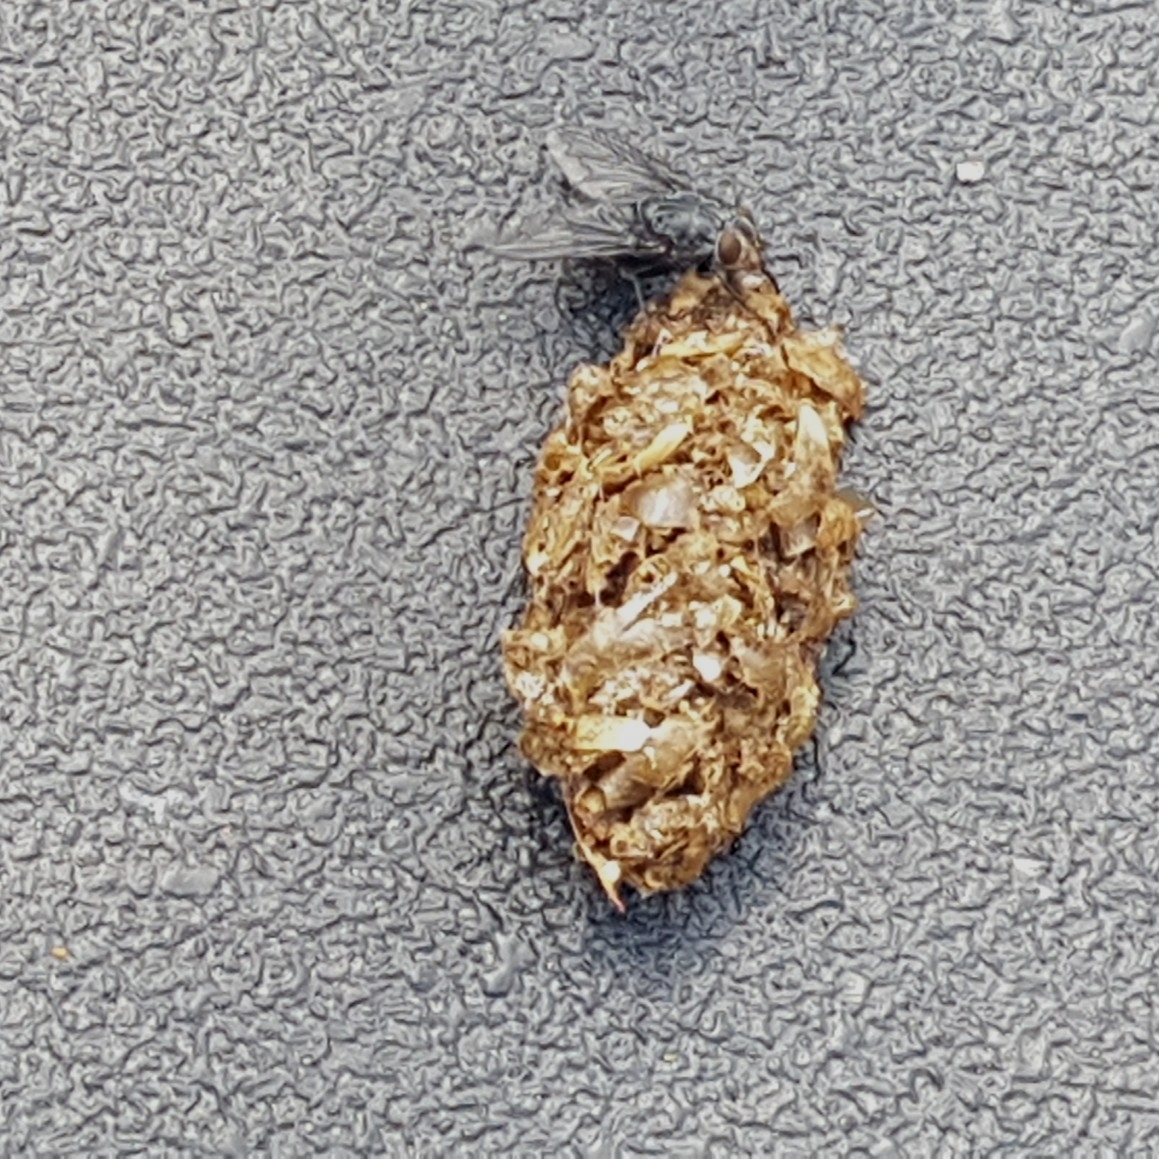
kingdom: Animalia
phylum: Arthropoda
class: Insecta
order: Diptera
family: Calliphoridae
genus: Calliphora
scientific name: Calliphora vicina
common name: Common blow flie
